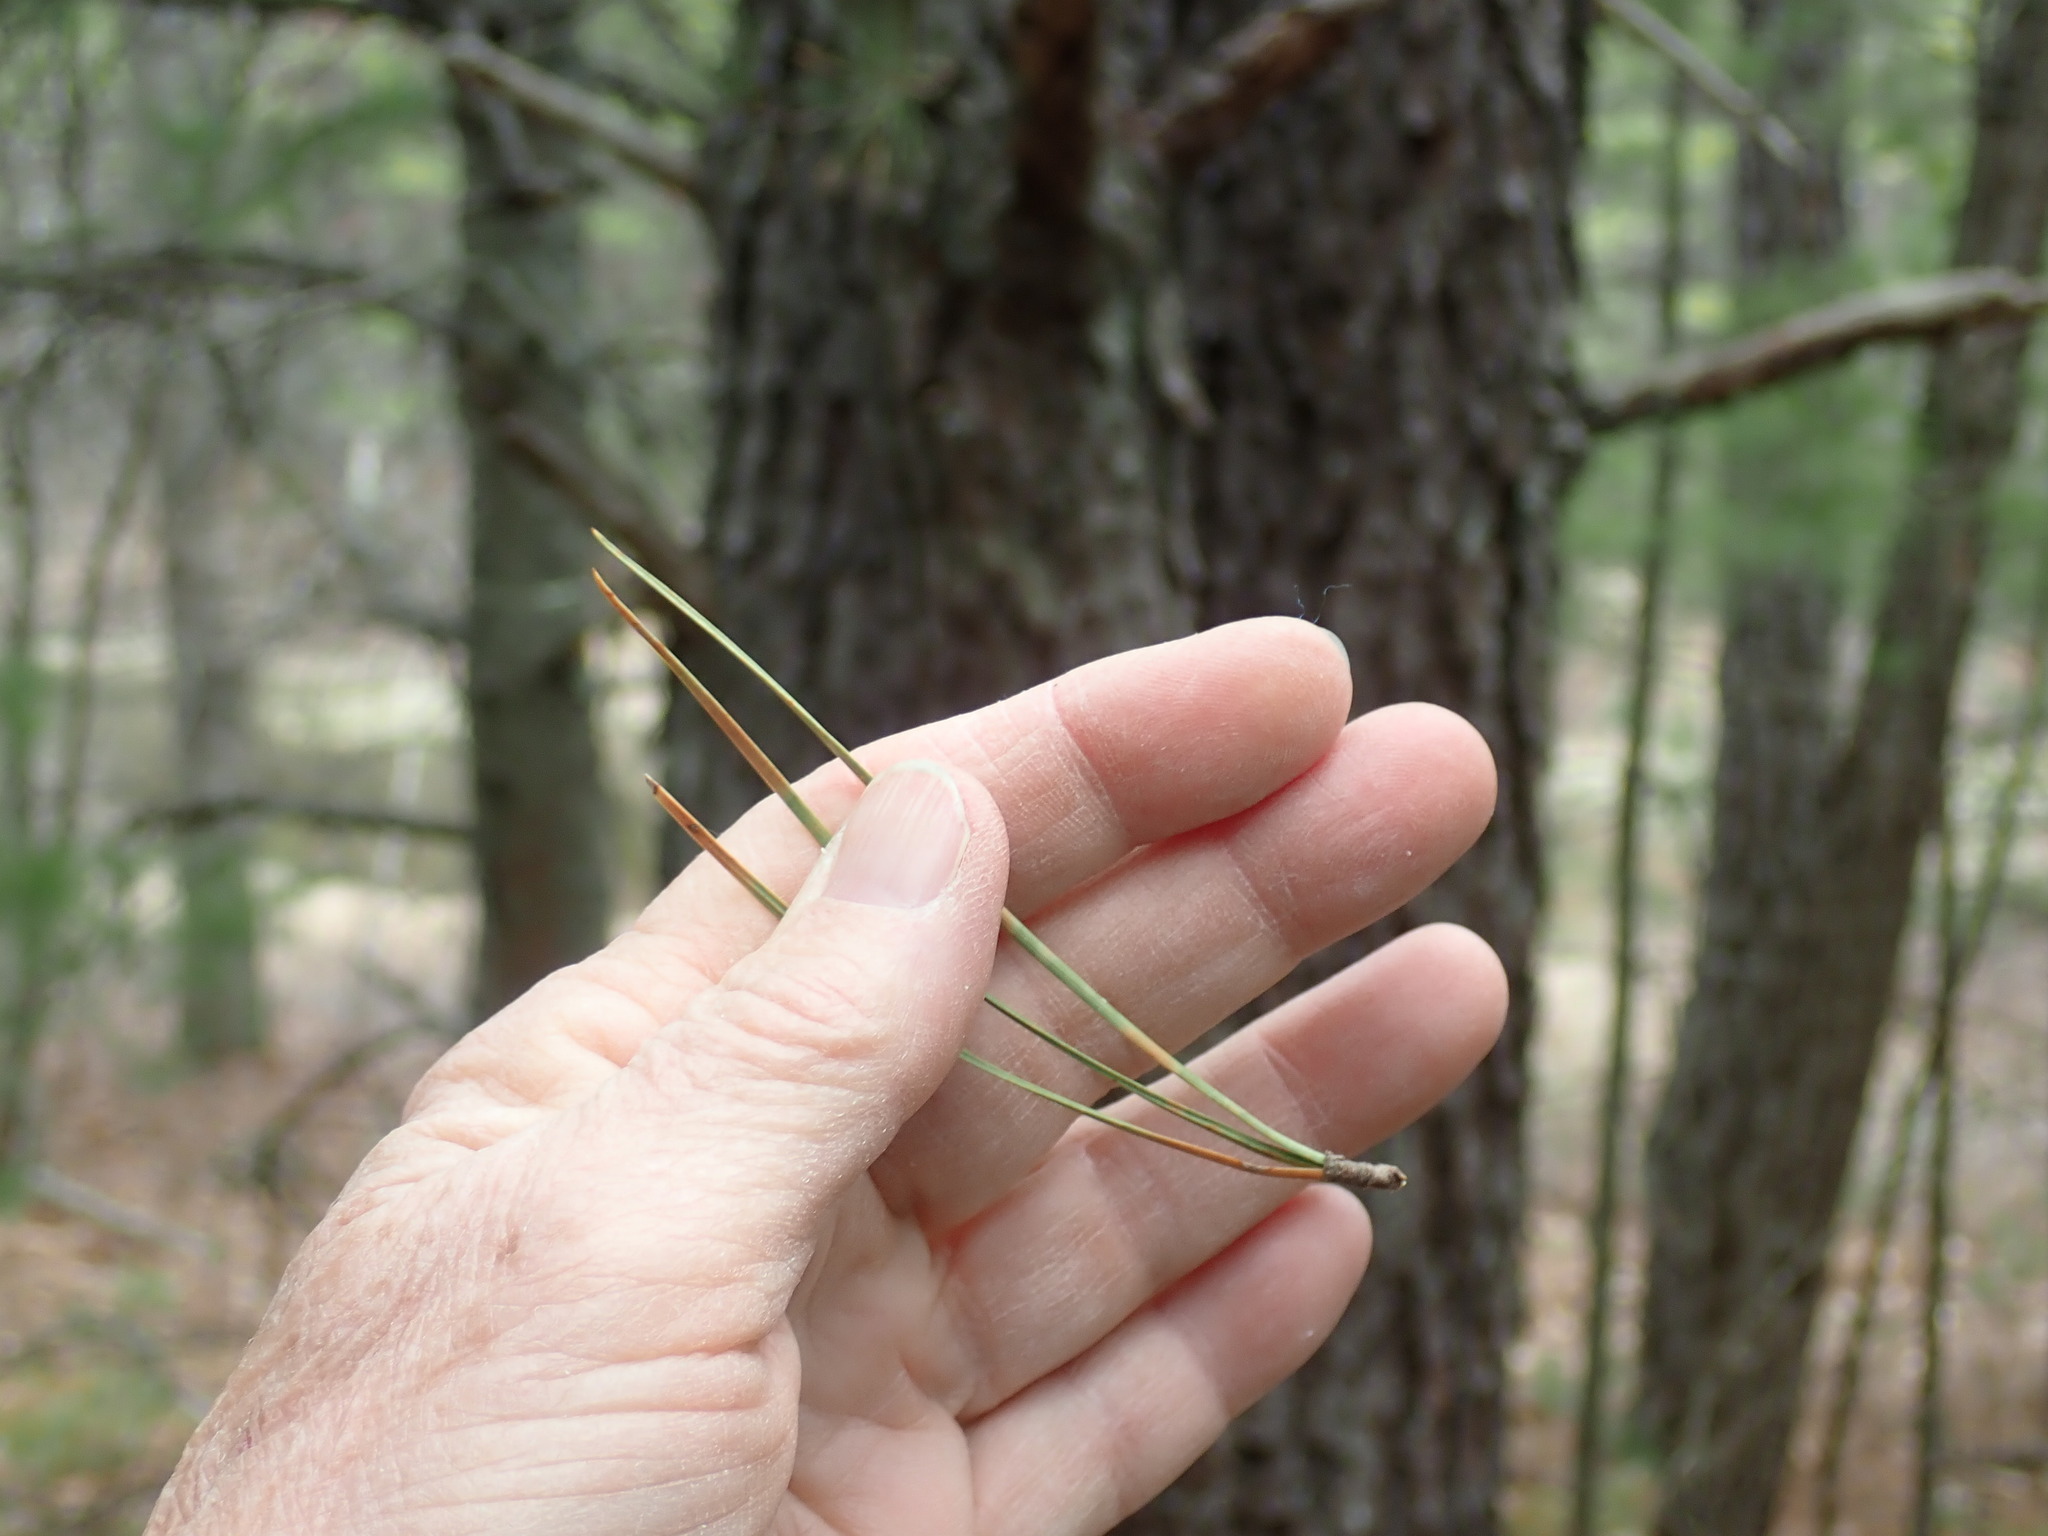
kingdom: Plantae
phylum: Tracheophyta
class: Pinopsida
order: Pinales
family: Pinaceae
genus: Pinus
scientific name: Pinus rigida
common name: Pitch pine
